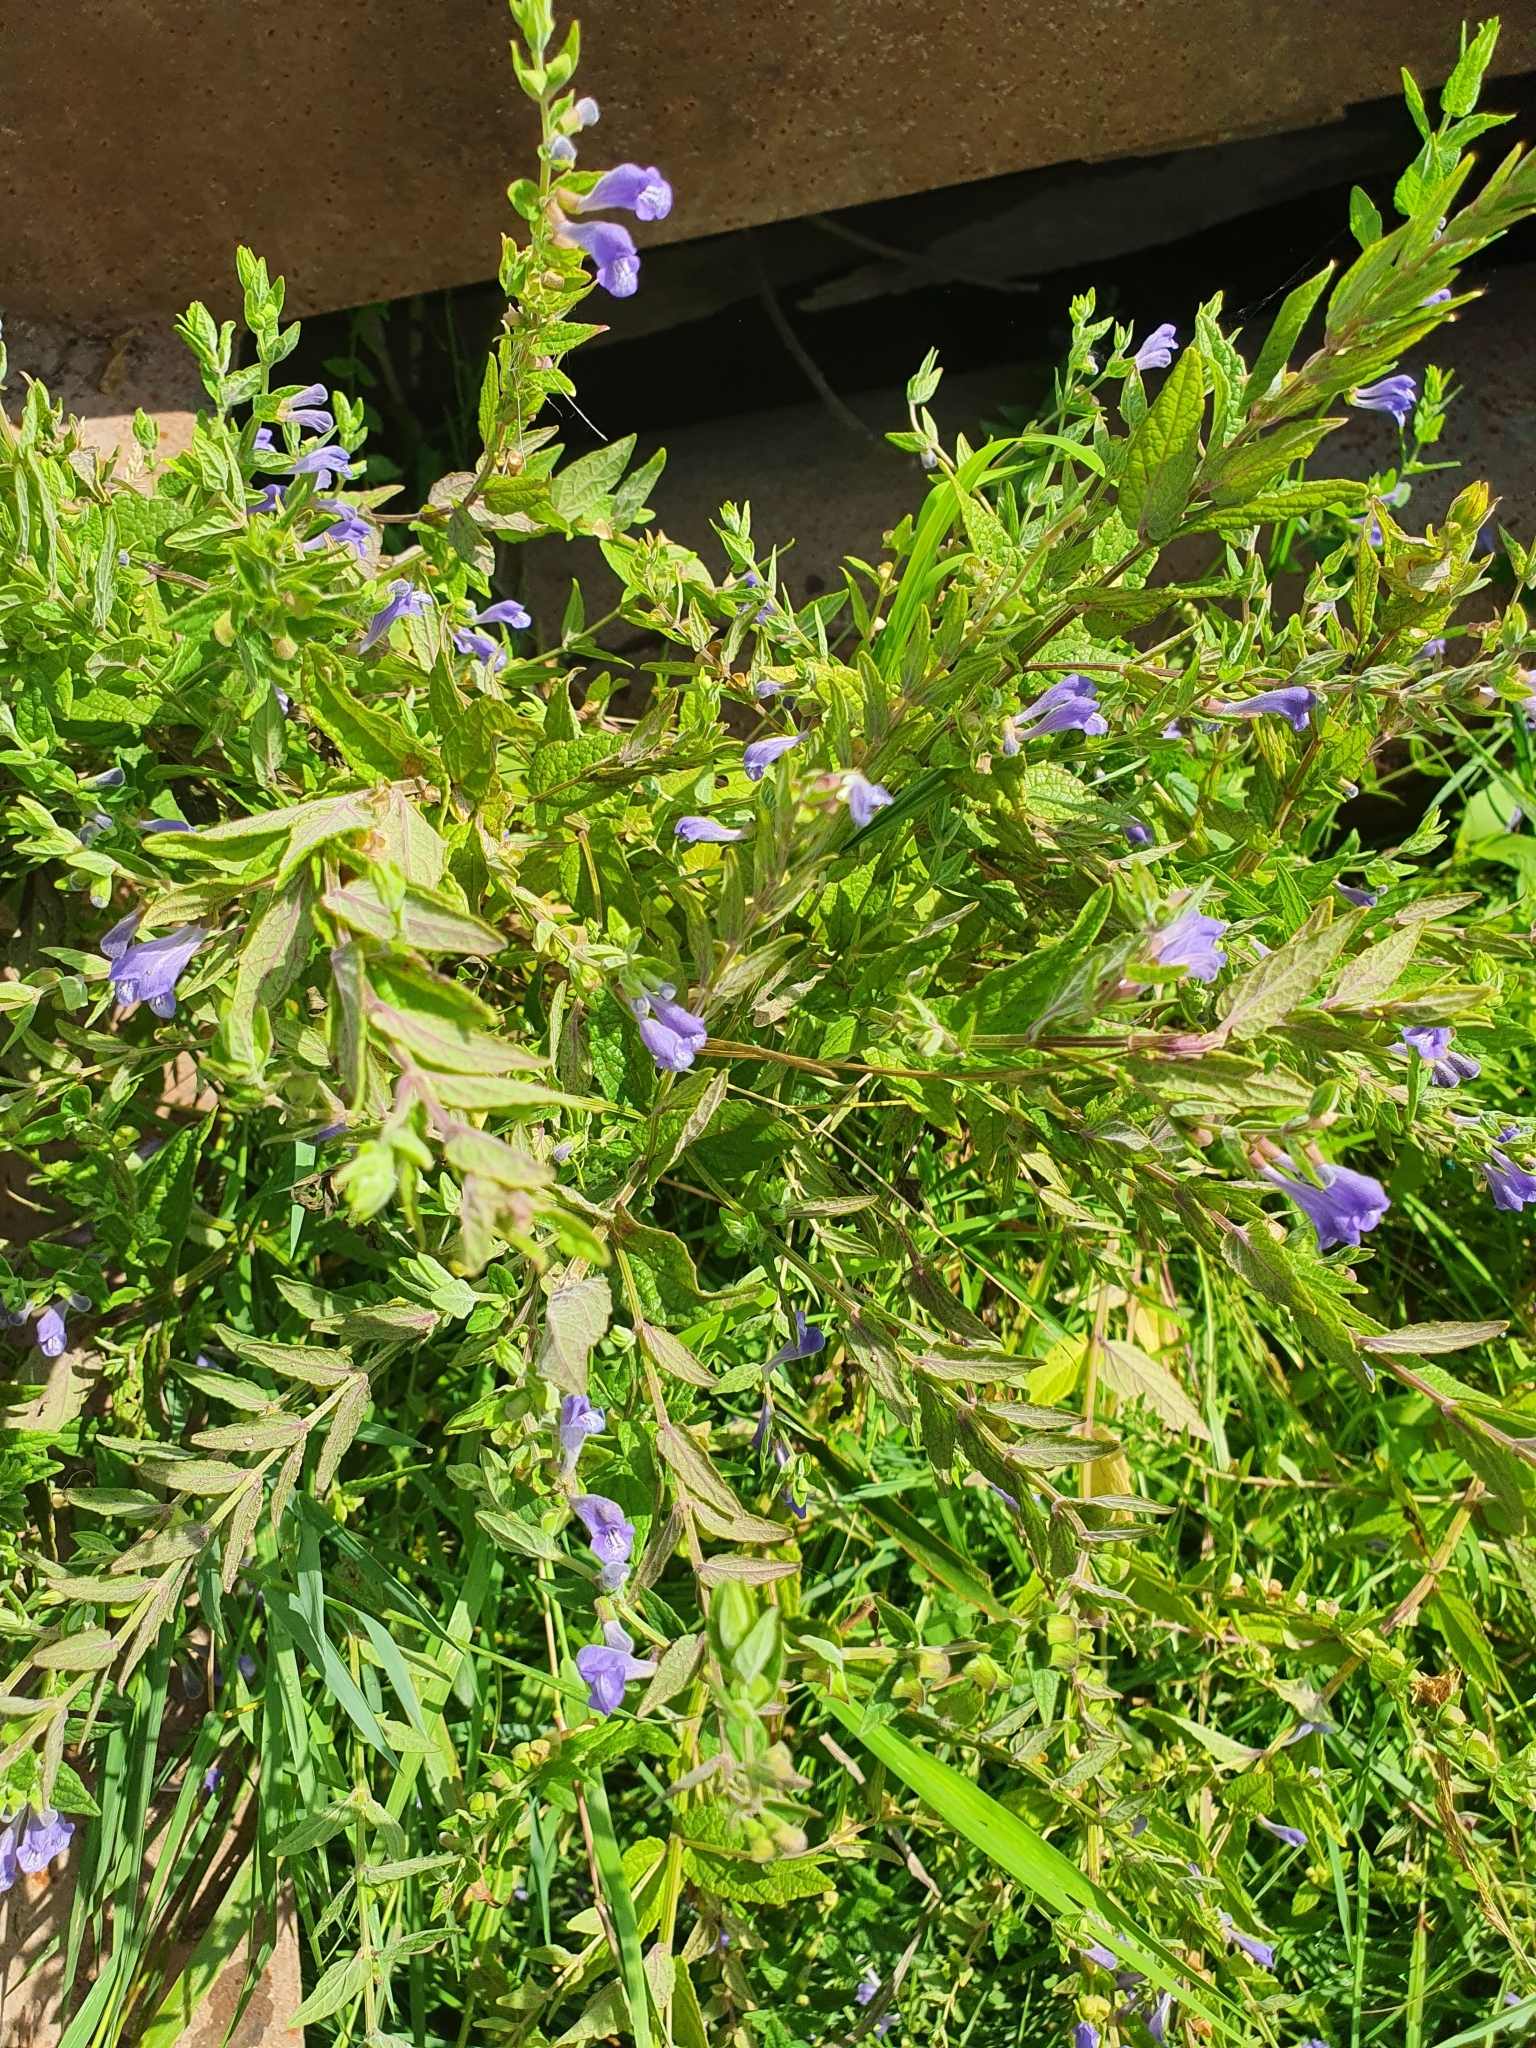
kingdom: Plantae
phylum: Tracheophyta
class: Magnoliopsida
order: Lamiales
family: Lamiaceae
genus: Scutellaria
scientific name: Scutellaria galericulata
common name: Skullcap
